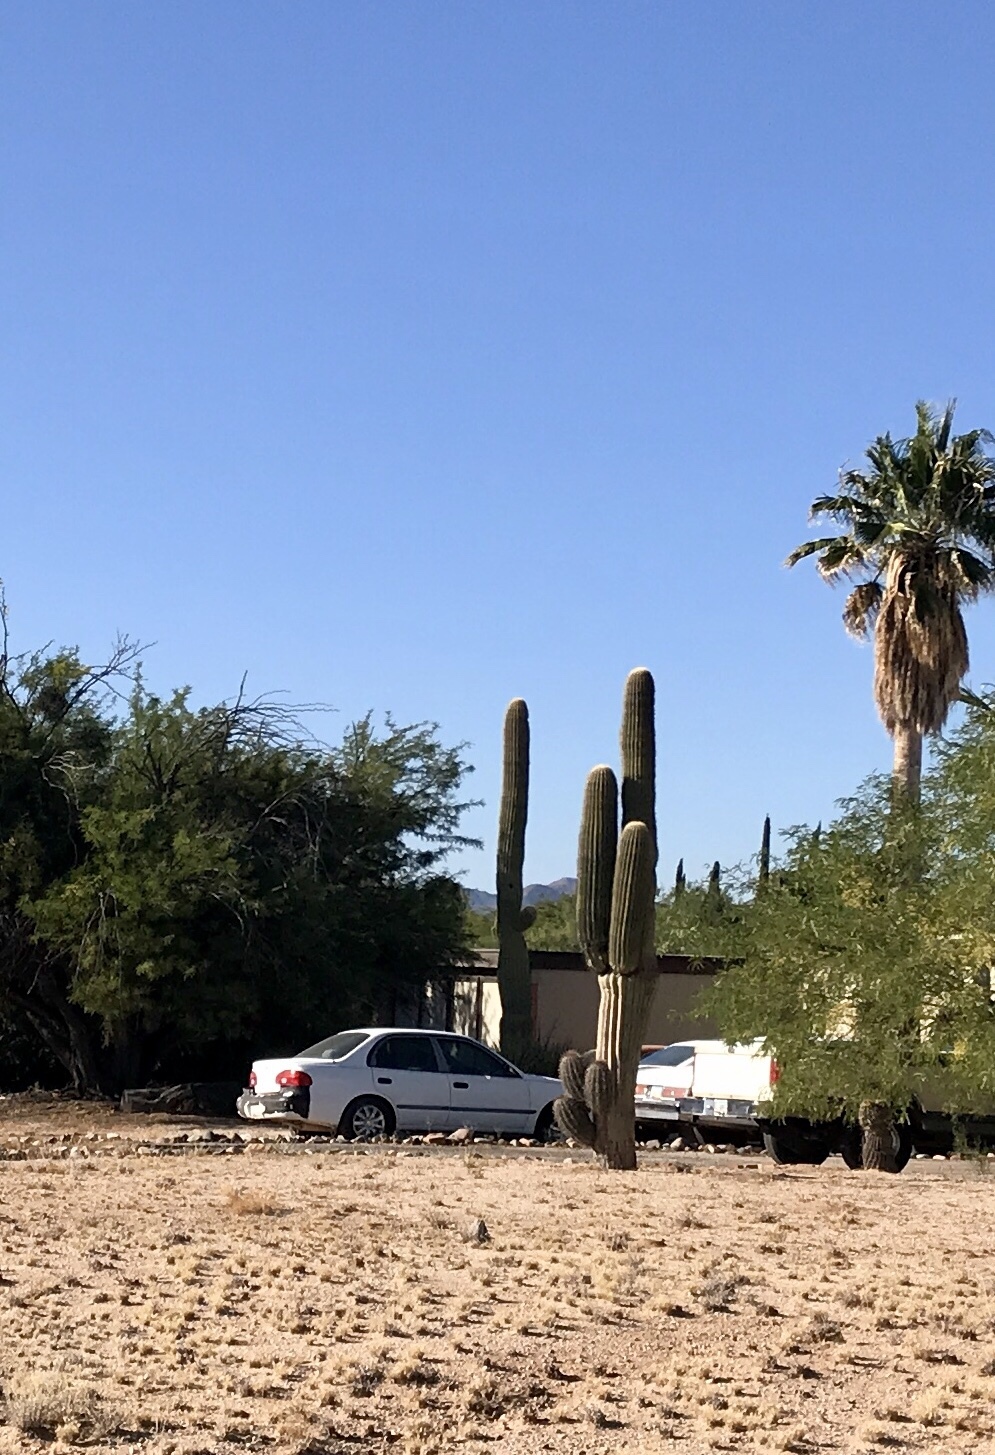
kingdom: Plantae
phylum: Tracheophyta
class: Magnoliopsida
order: Caryophyllales
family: Cactaceae
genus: Carnegiea
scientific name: Carnegiea gigantea
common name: Saguaro
